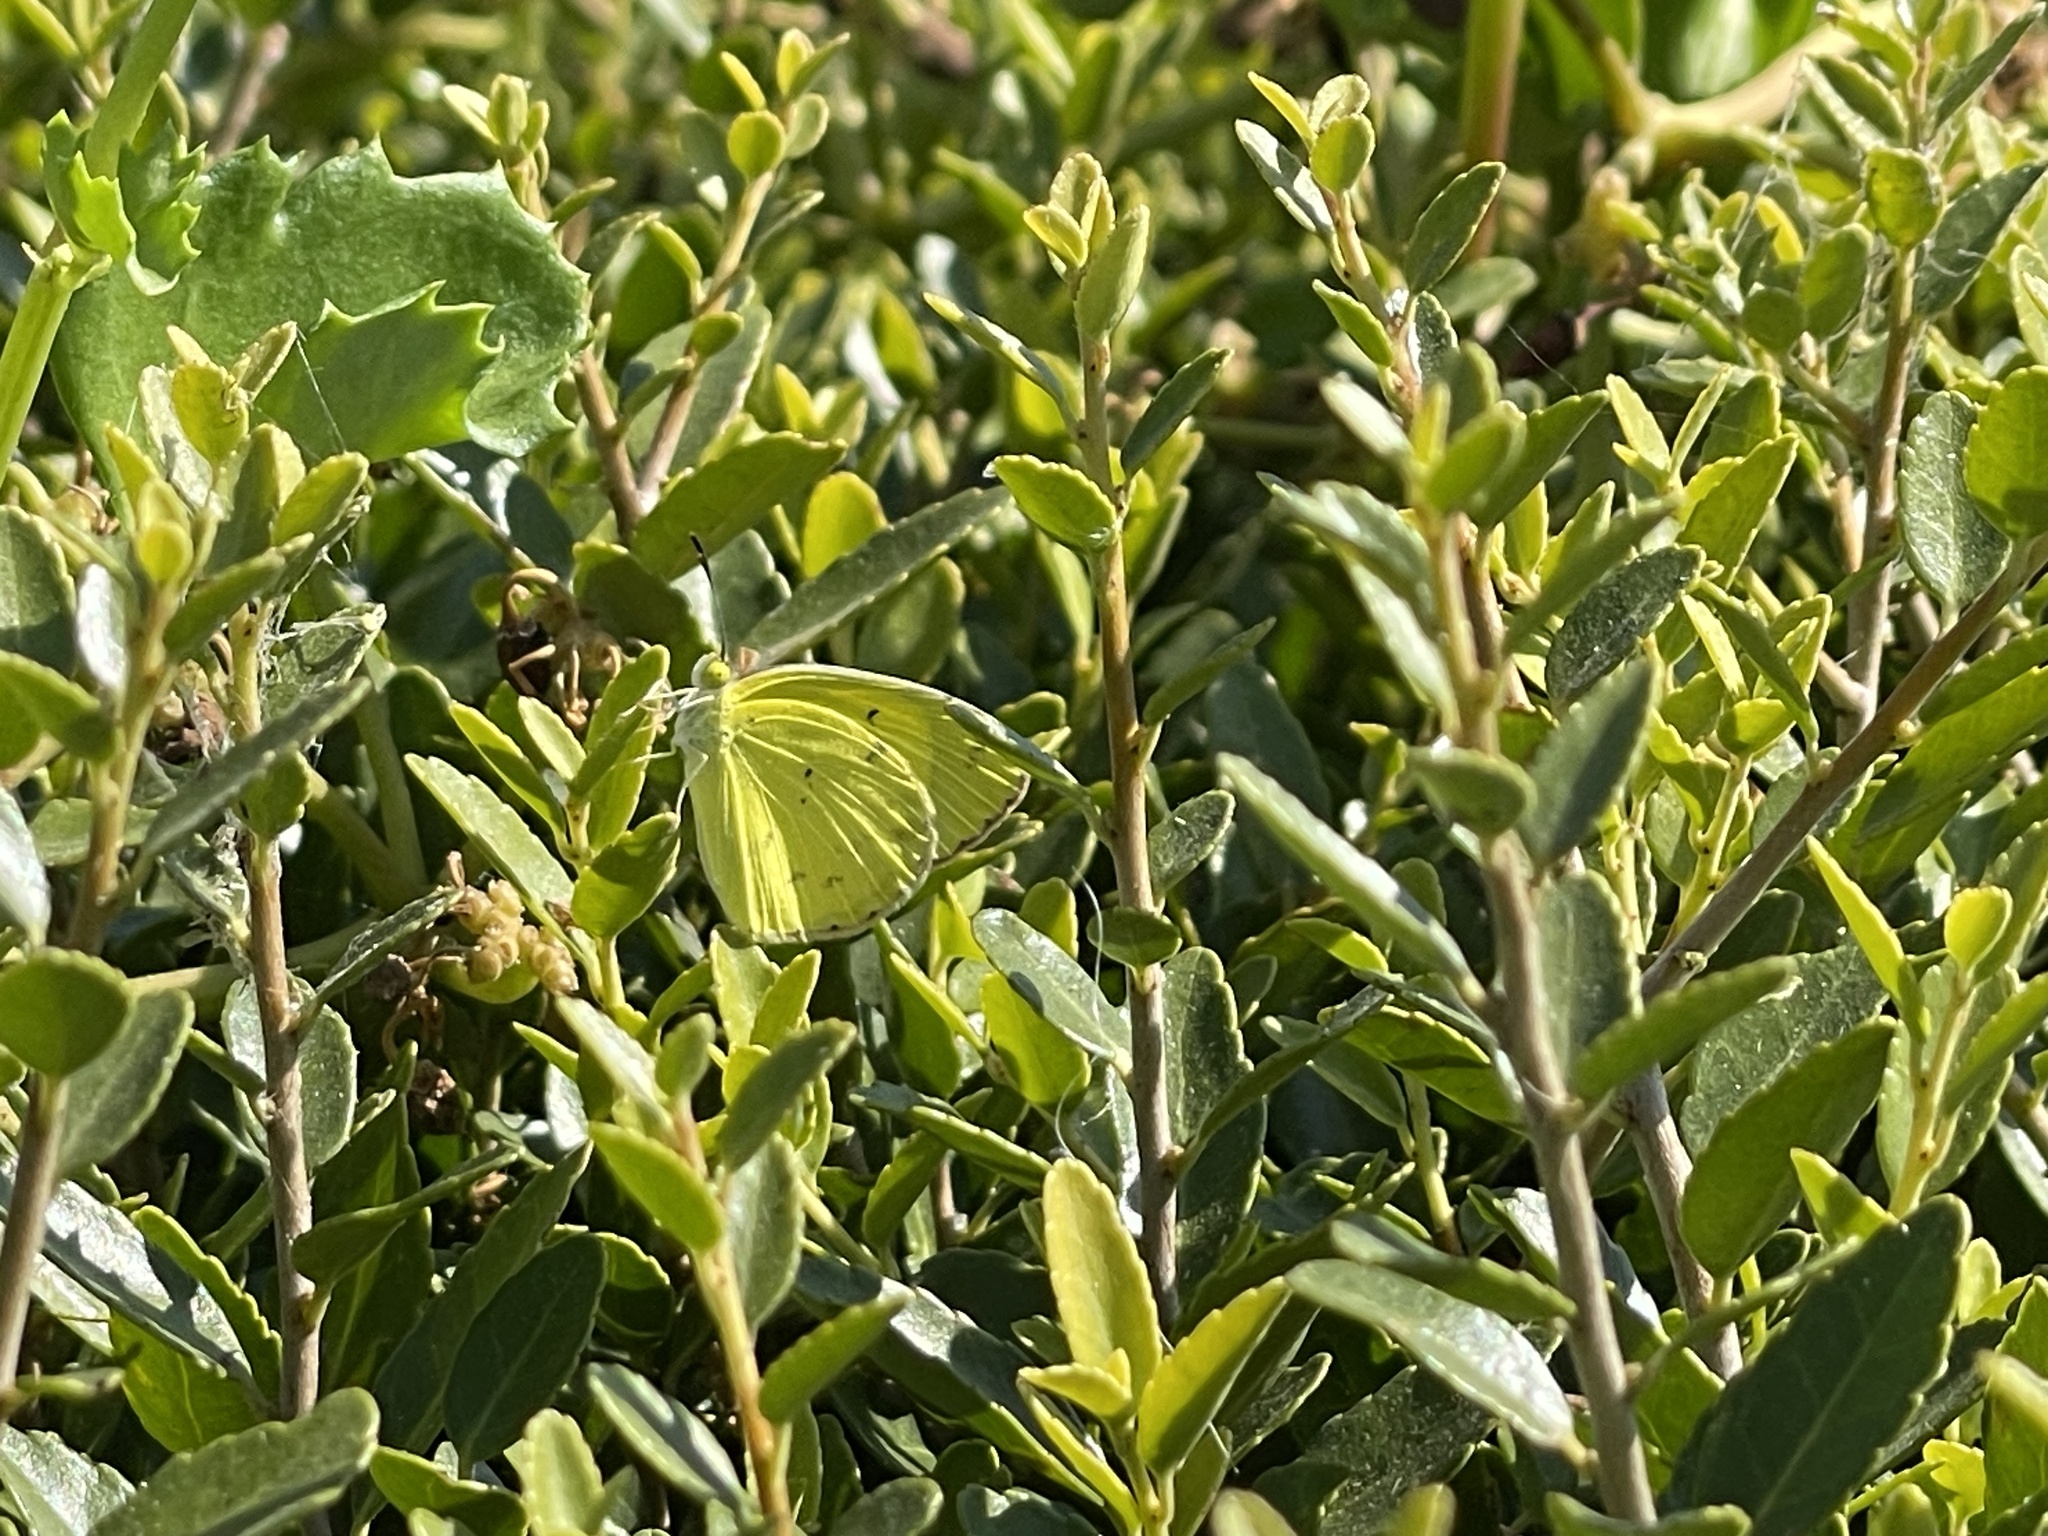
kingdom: Animalia
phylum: Arthropoda
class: Insecta
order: Lepidoptera
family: Pieridae
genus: Pyrisitia
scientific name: Pyrisitia lisa
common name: Little yellow
